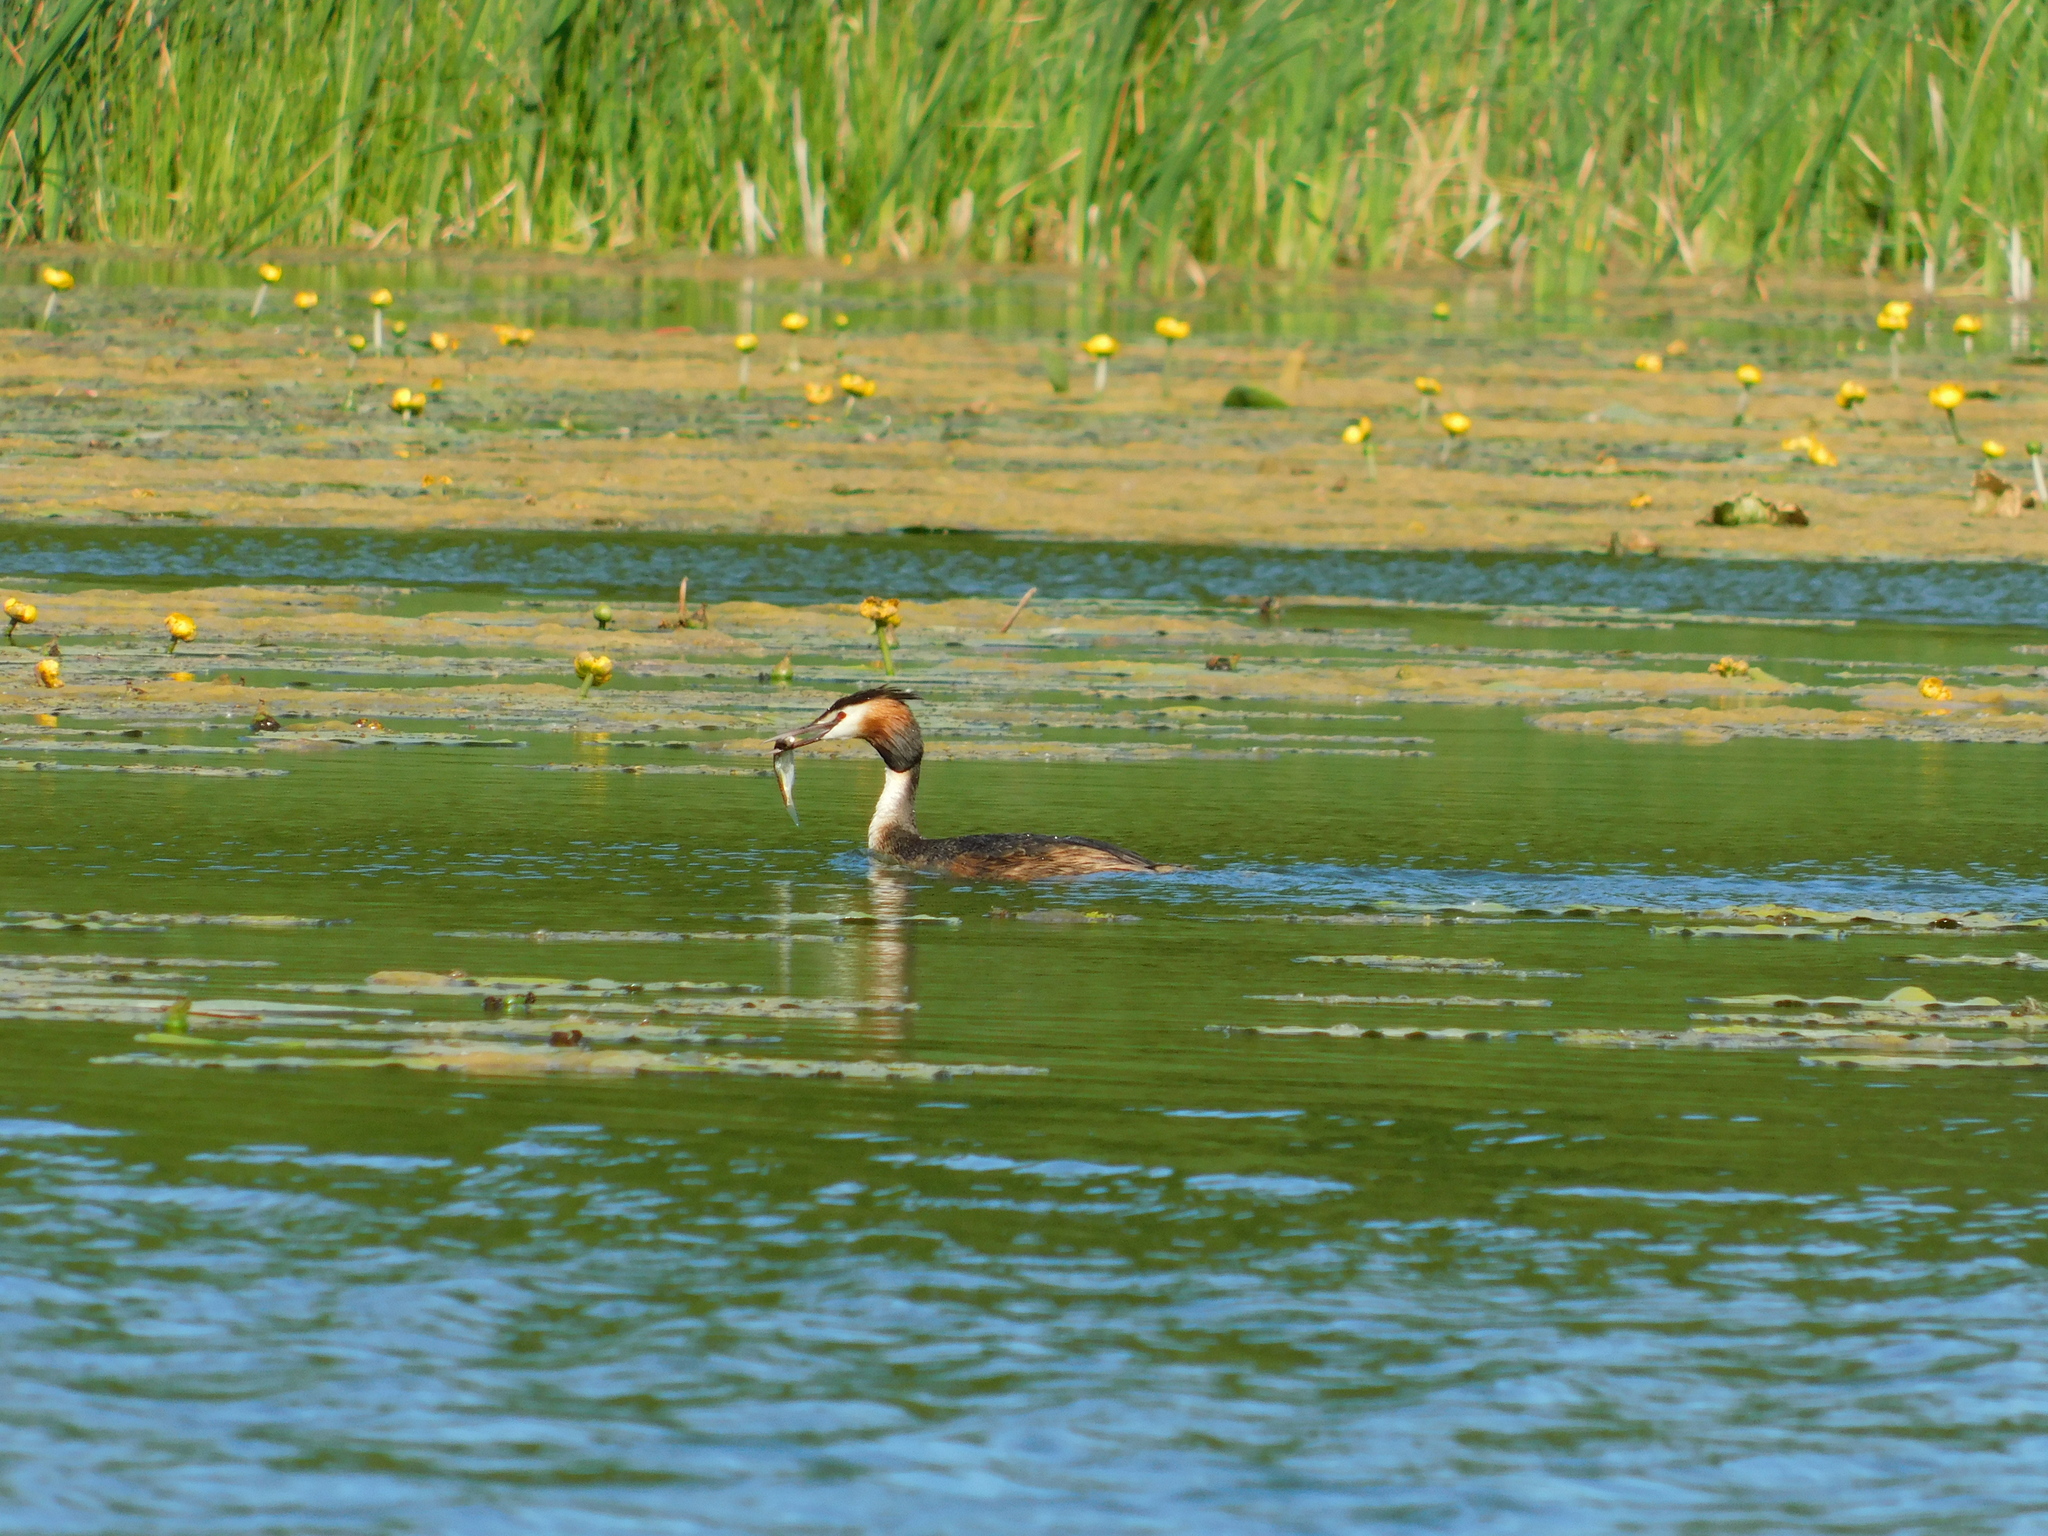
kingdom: Animalia
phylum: Chordata
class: Aves
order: Podicipediformes
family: Podicipedidae
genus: Podiceps
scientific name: Podiceps cristatus
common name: Great crested grebe
